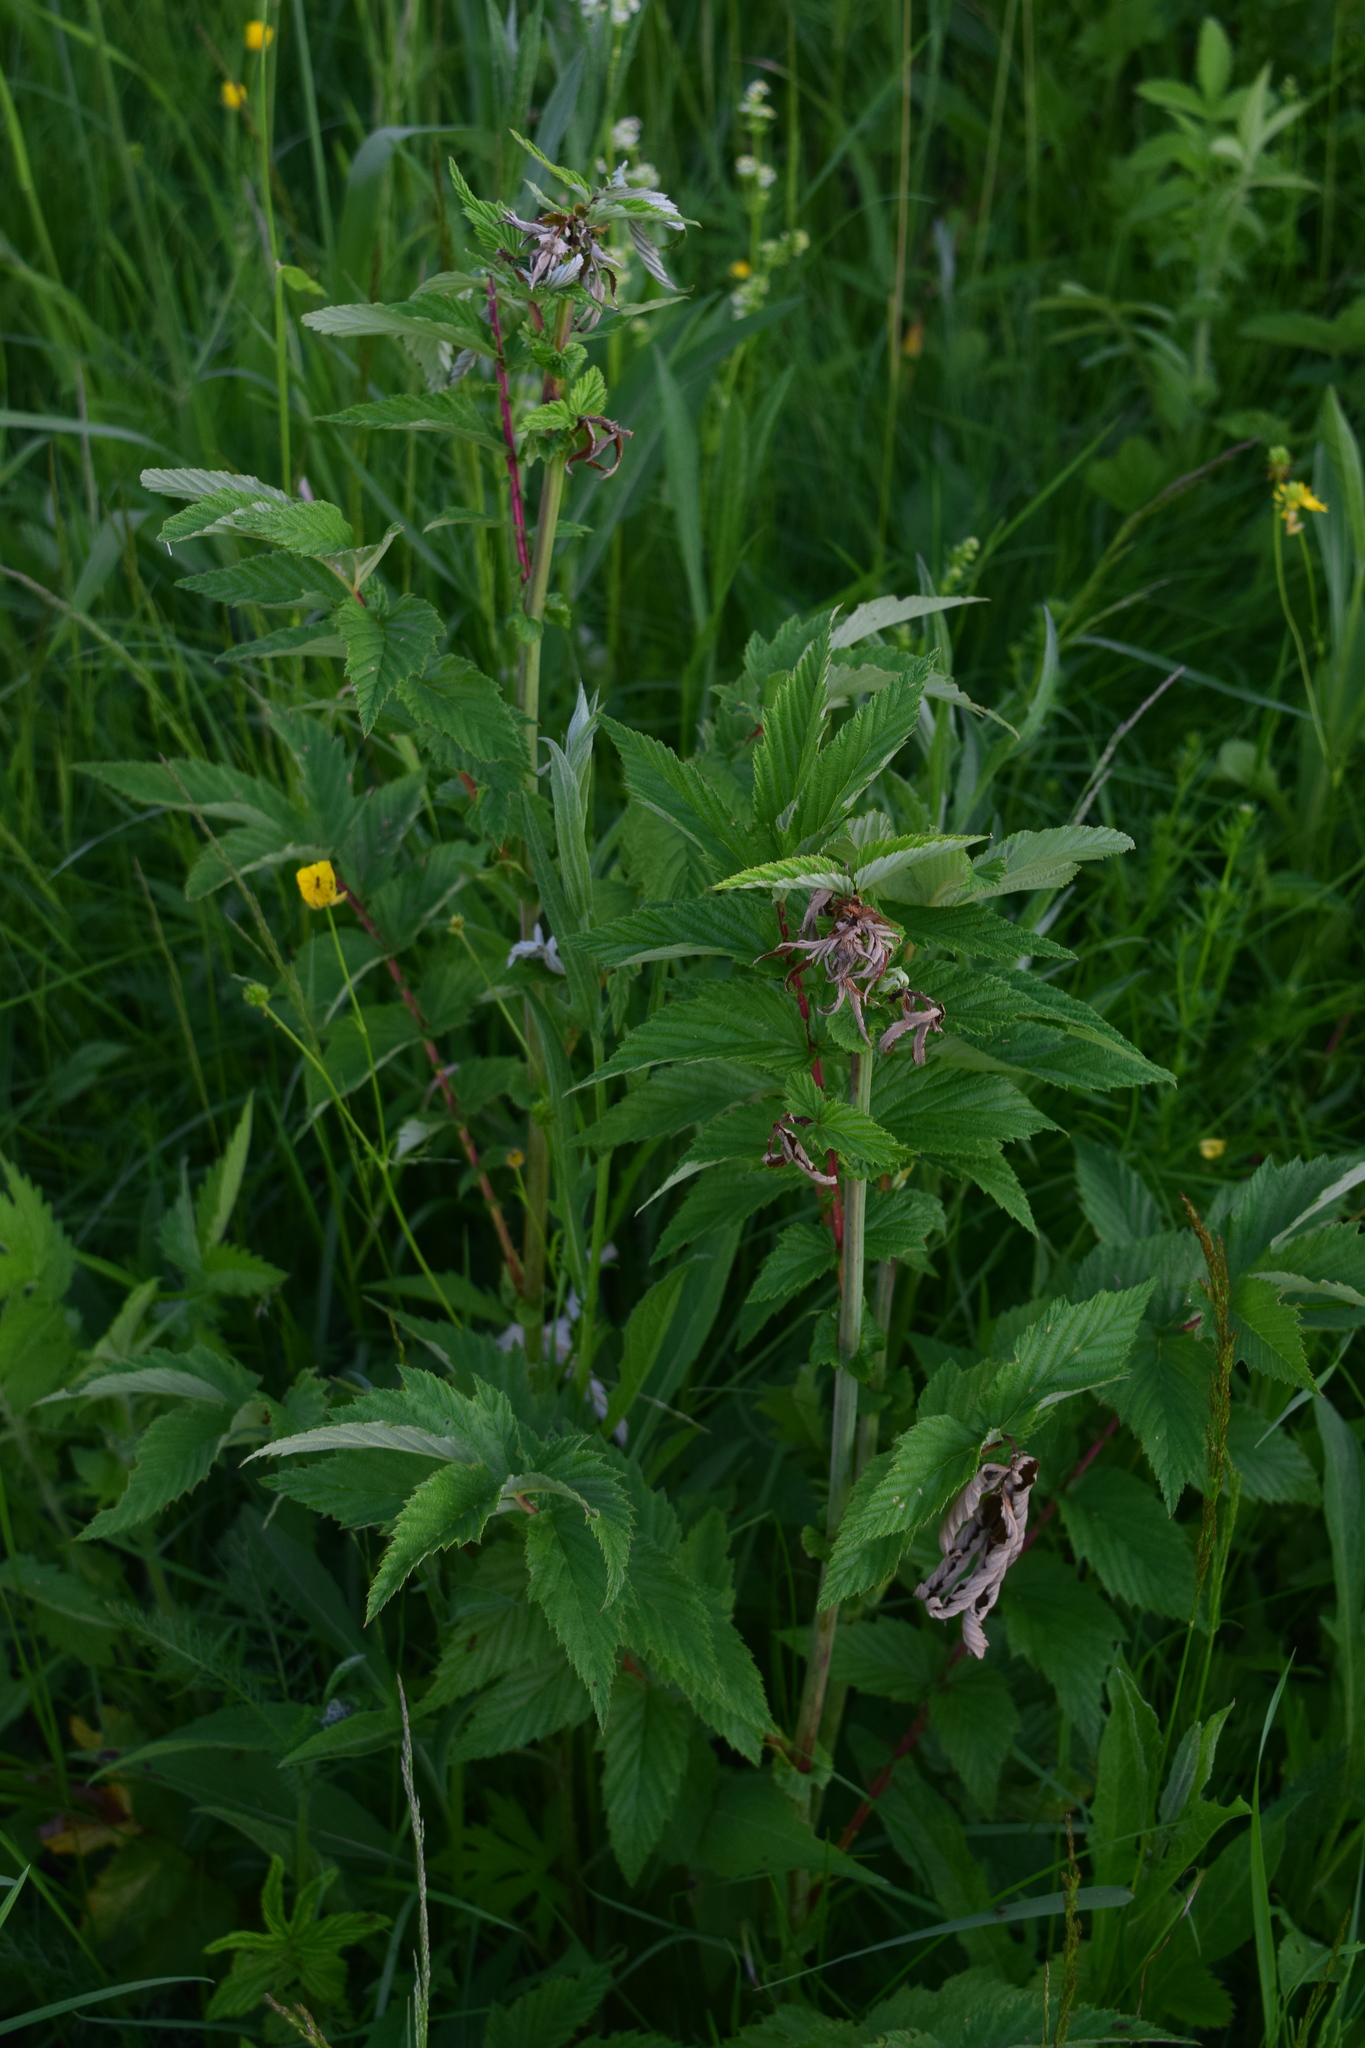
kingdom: Plantae
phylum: Tracheophyta
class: Magnoliopsida
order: Rosales
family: Rosaceae
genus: Filipendula
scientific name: Filipendula ulmaria
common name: Meadowsweet
